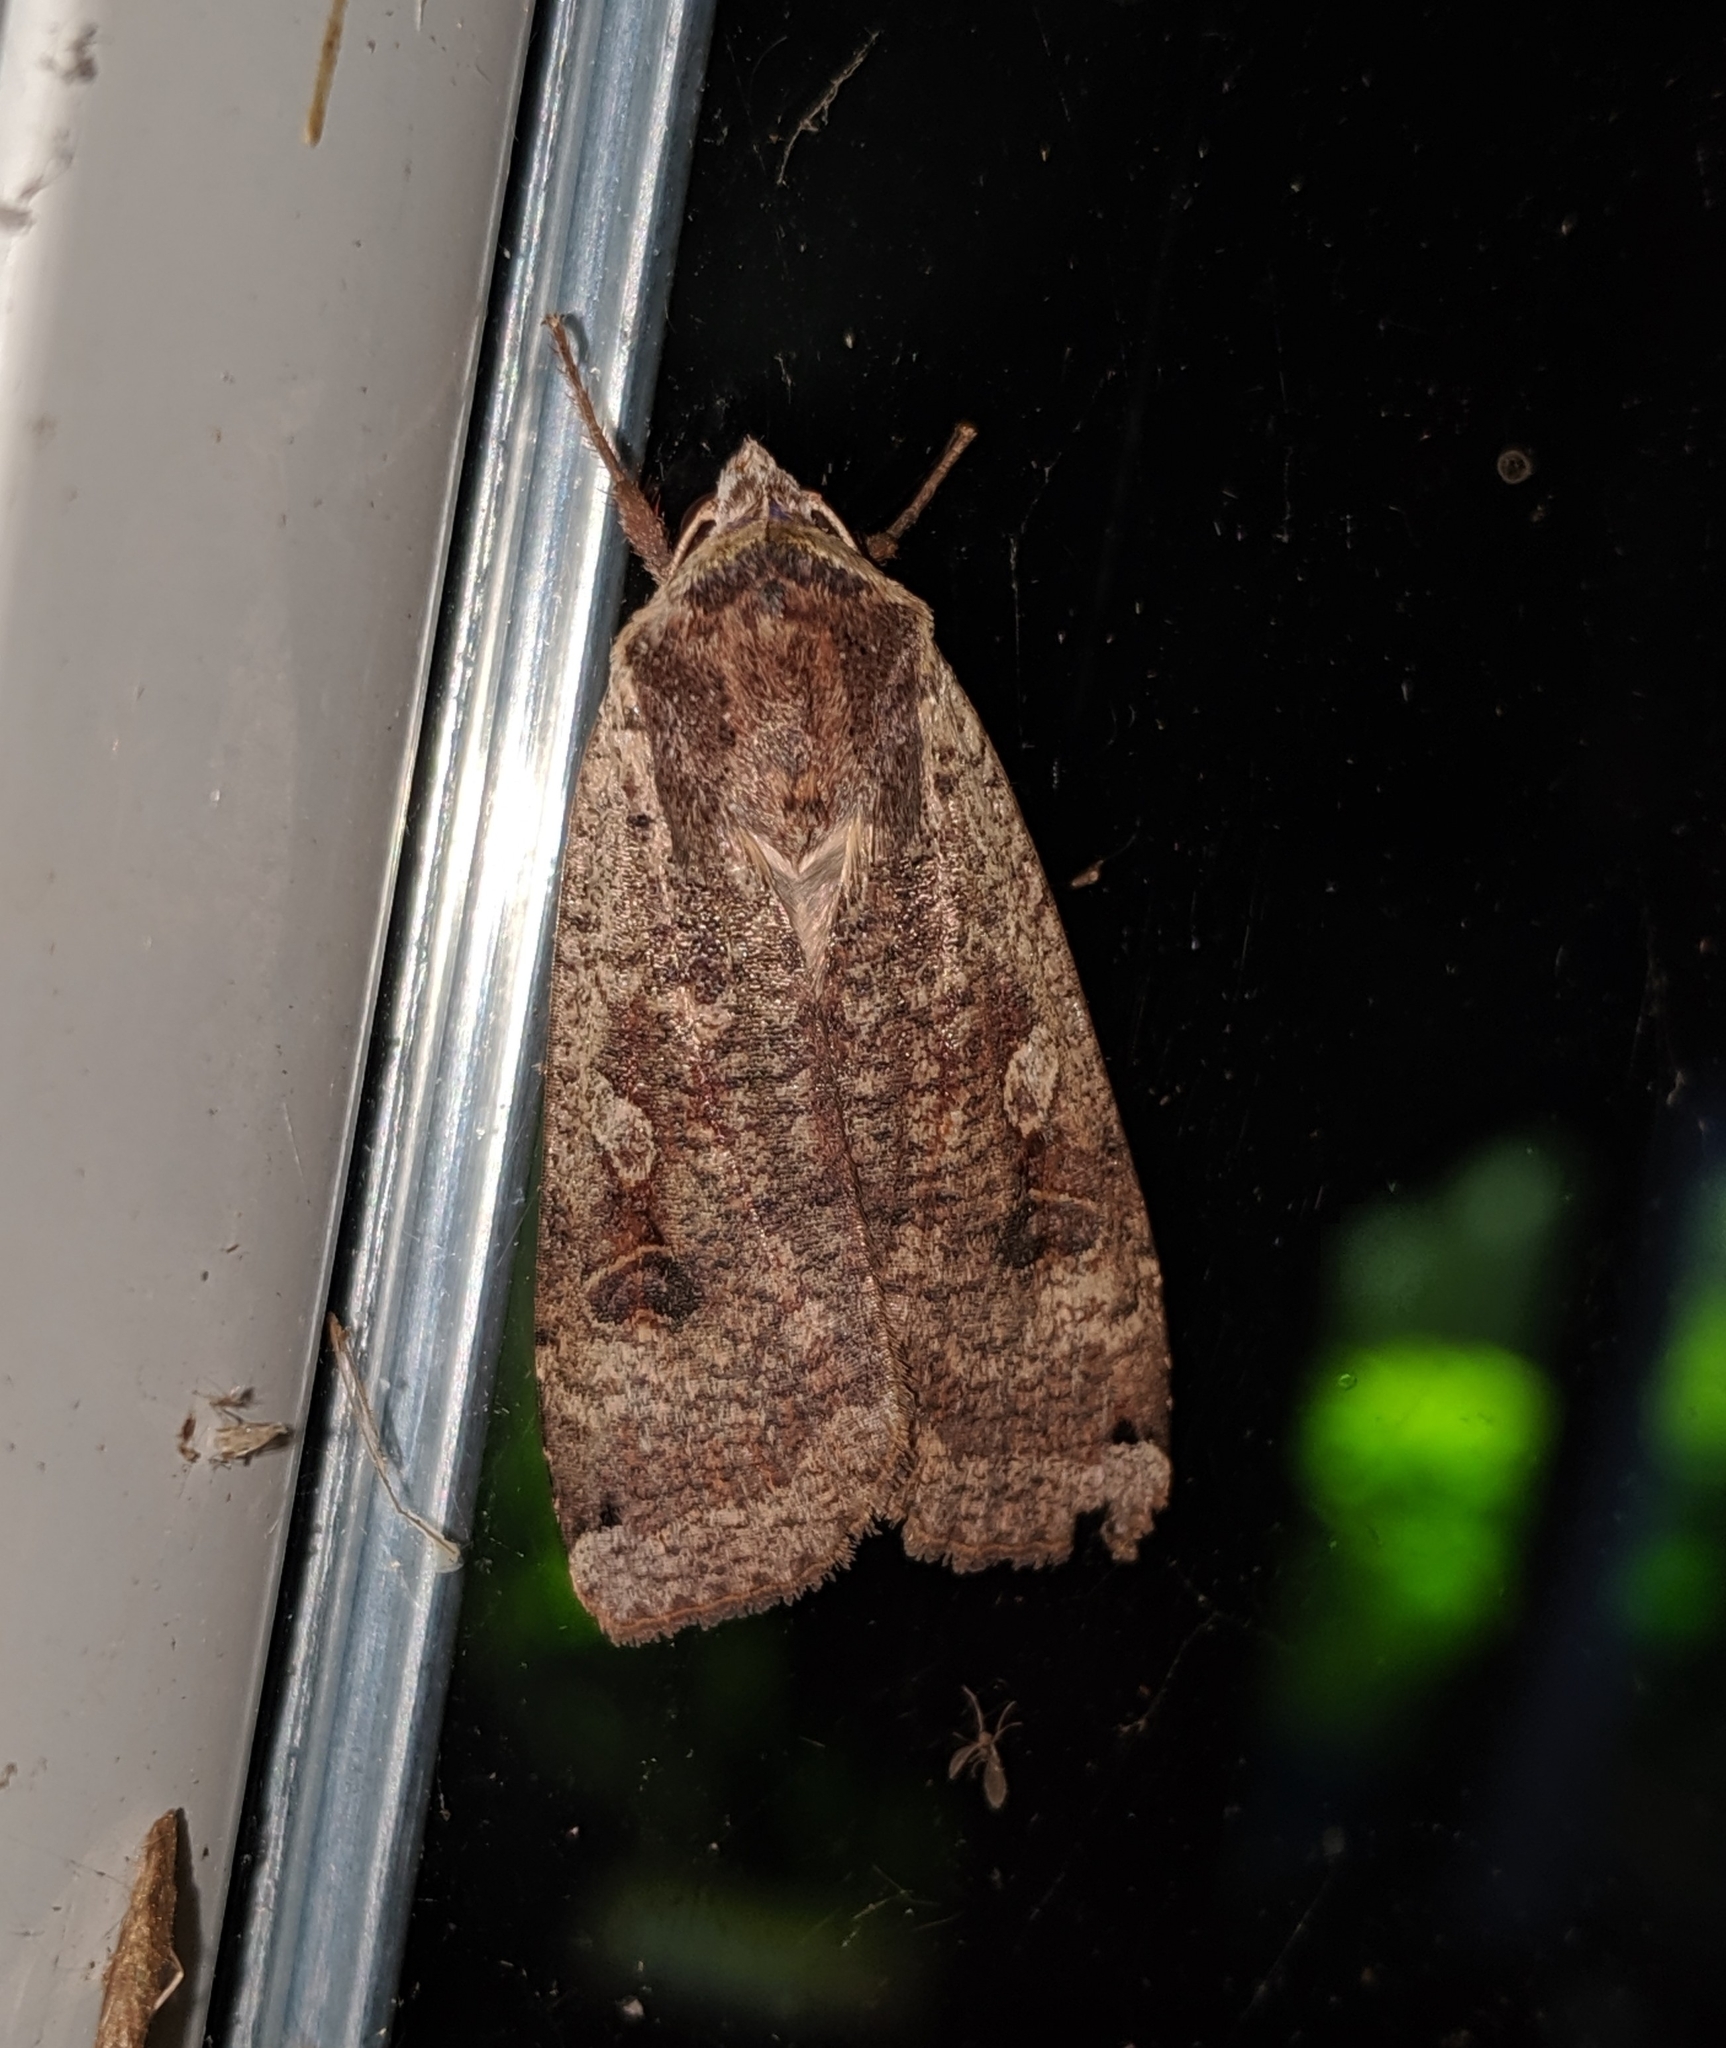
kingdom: Animalia
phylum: Arthropoda
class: Insecta
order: Lepidoptera
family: Noctuidae
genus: Noctua
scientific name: Noctua pronuba
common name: Large yellow underwing
